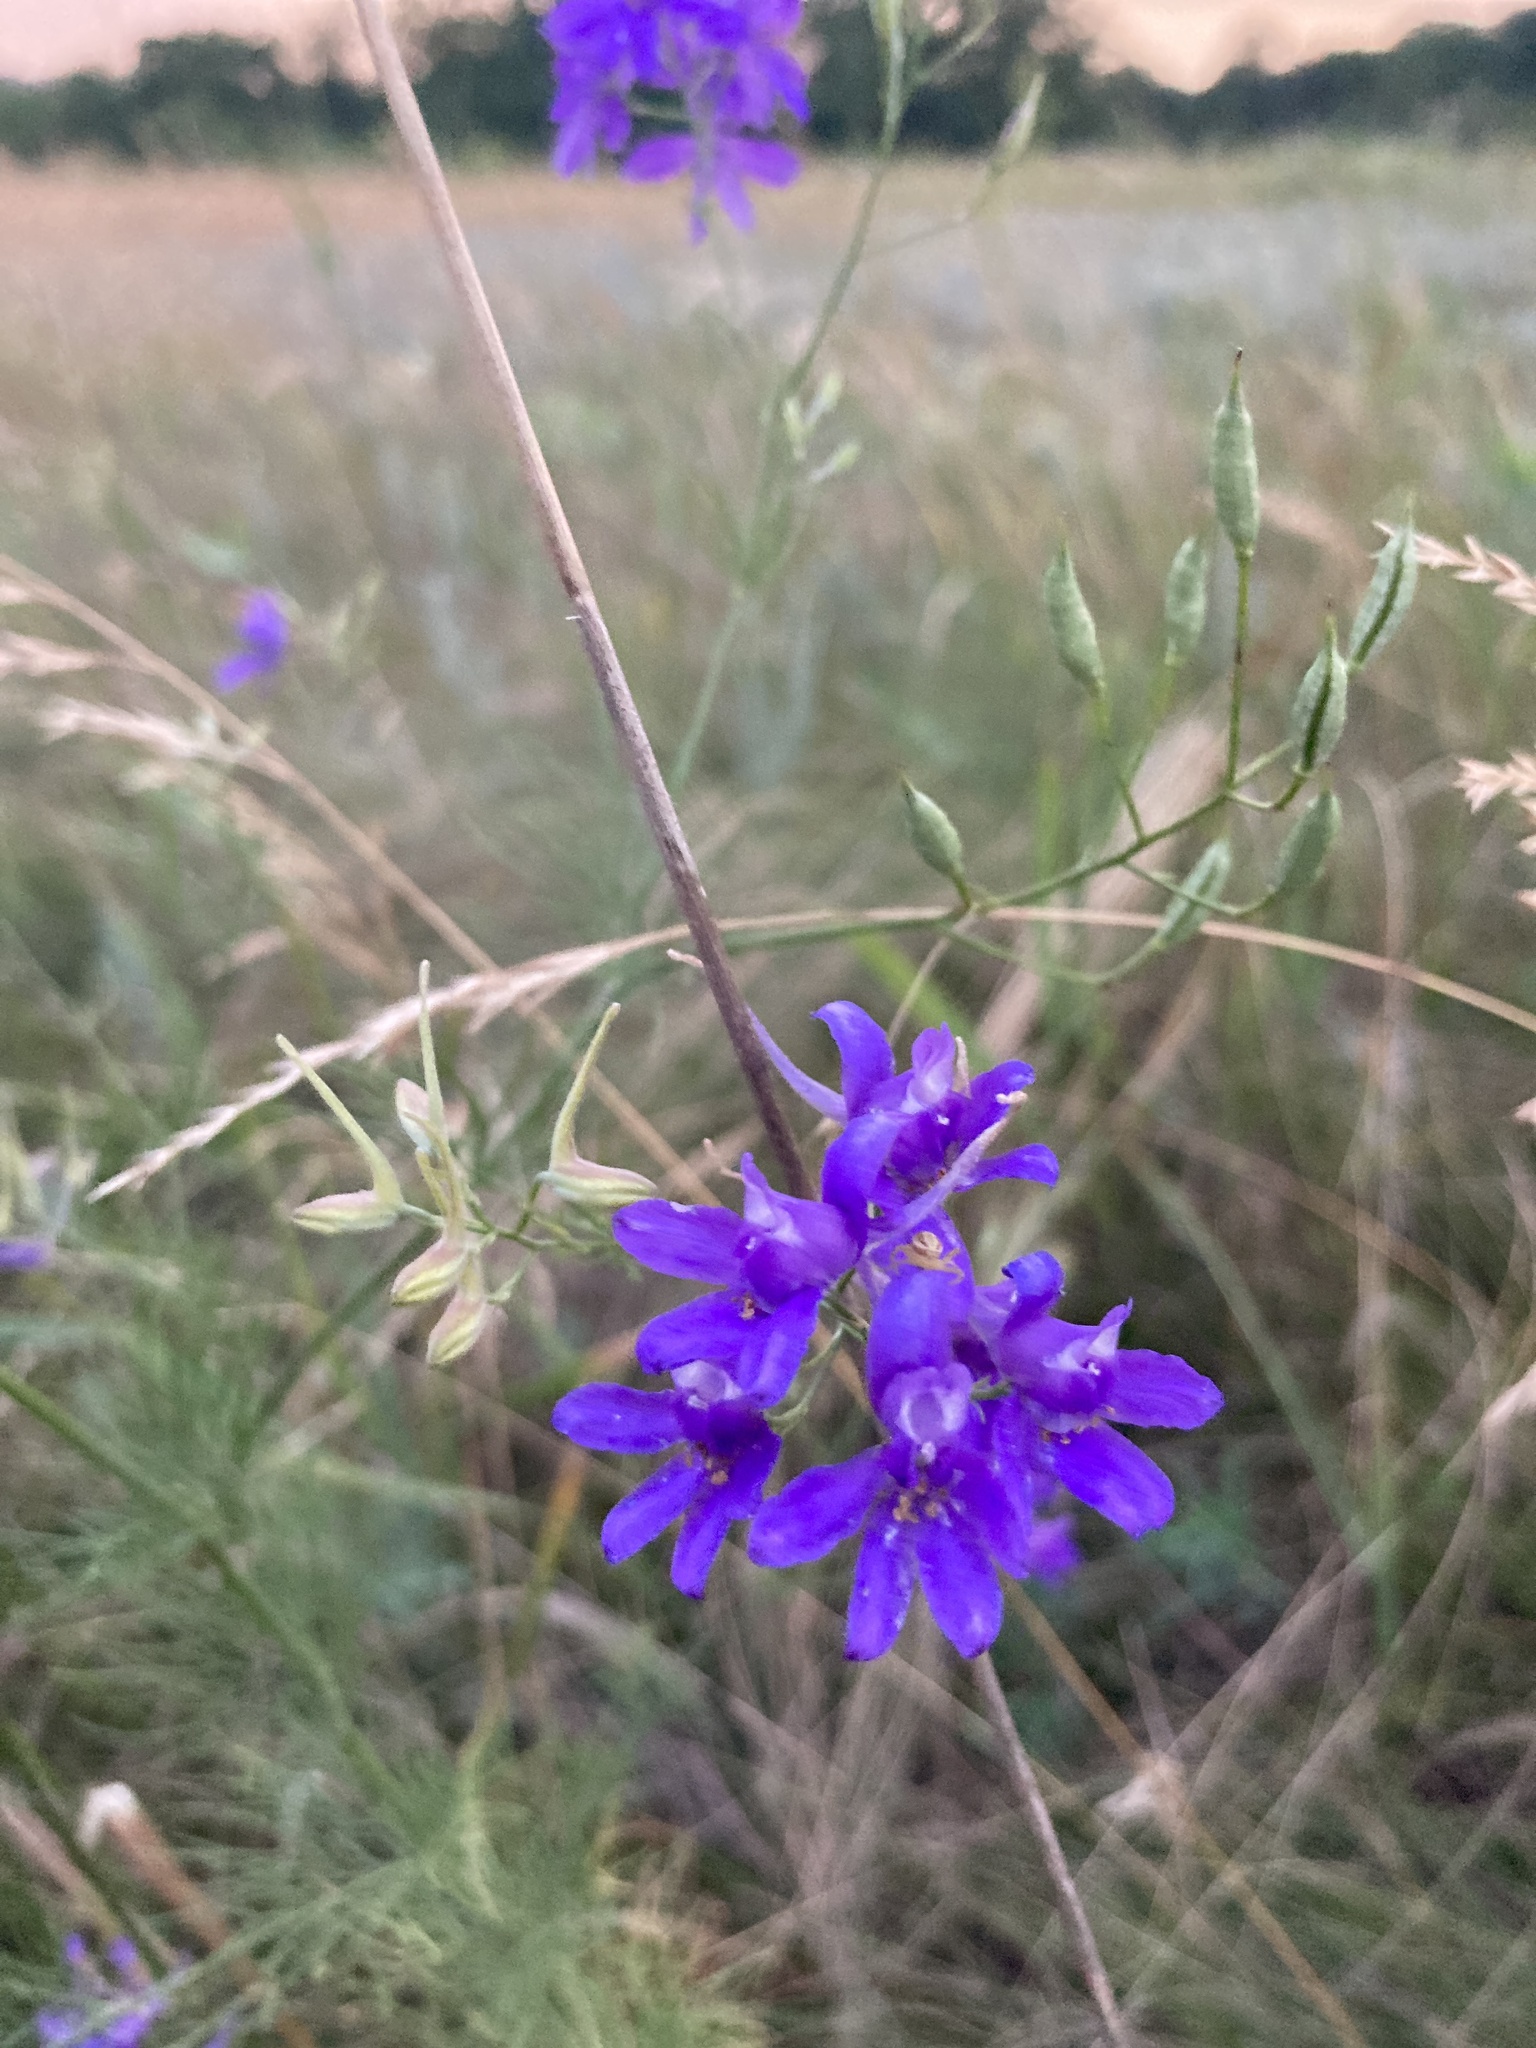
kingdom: Plantae
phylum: Tracheophyta
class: Magnoliopsida
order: Ranunculales
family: Ranunculaceae
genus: Delphinium
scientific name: Delphinium consolida
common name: Branching larkspur
